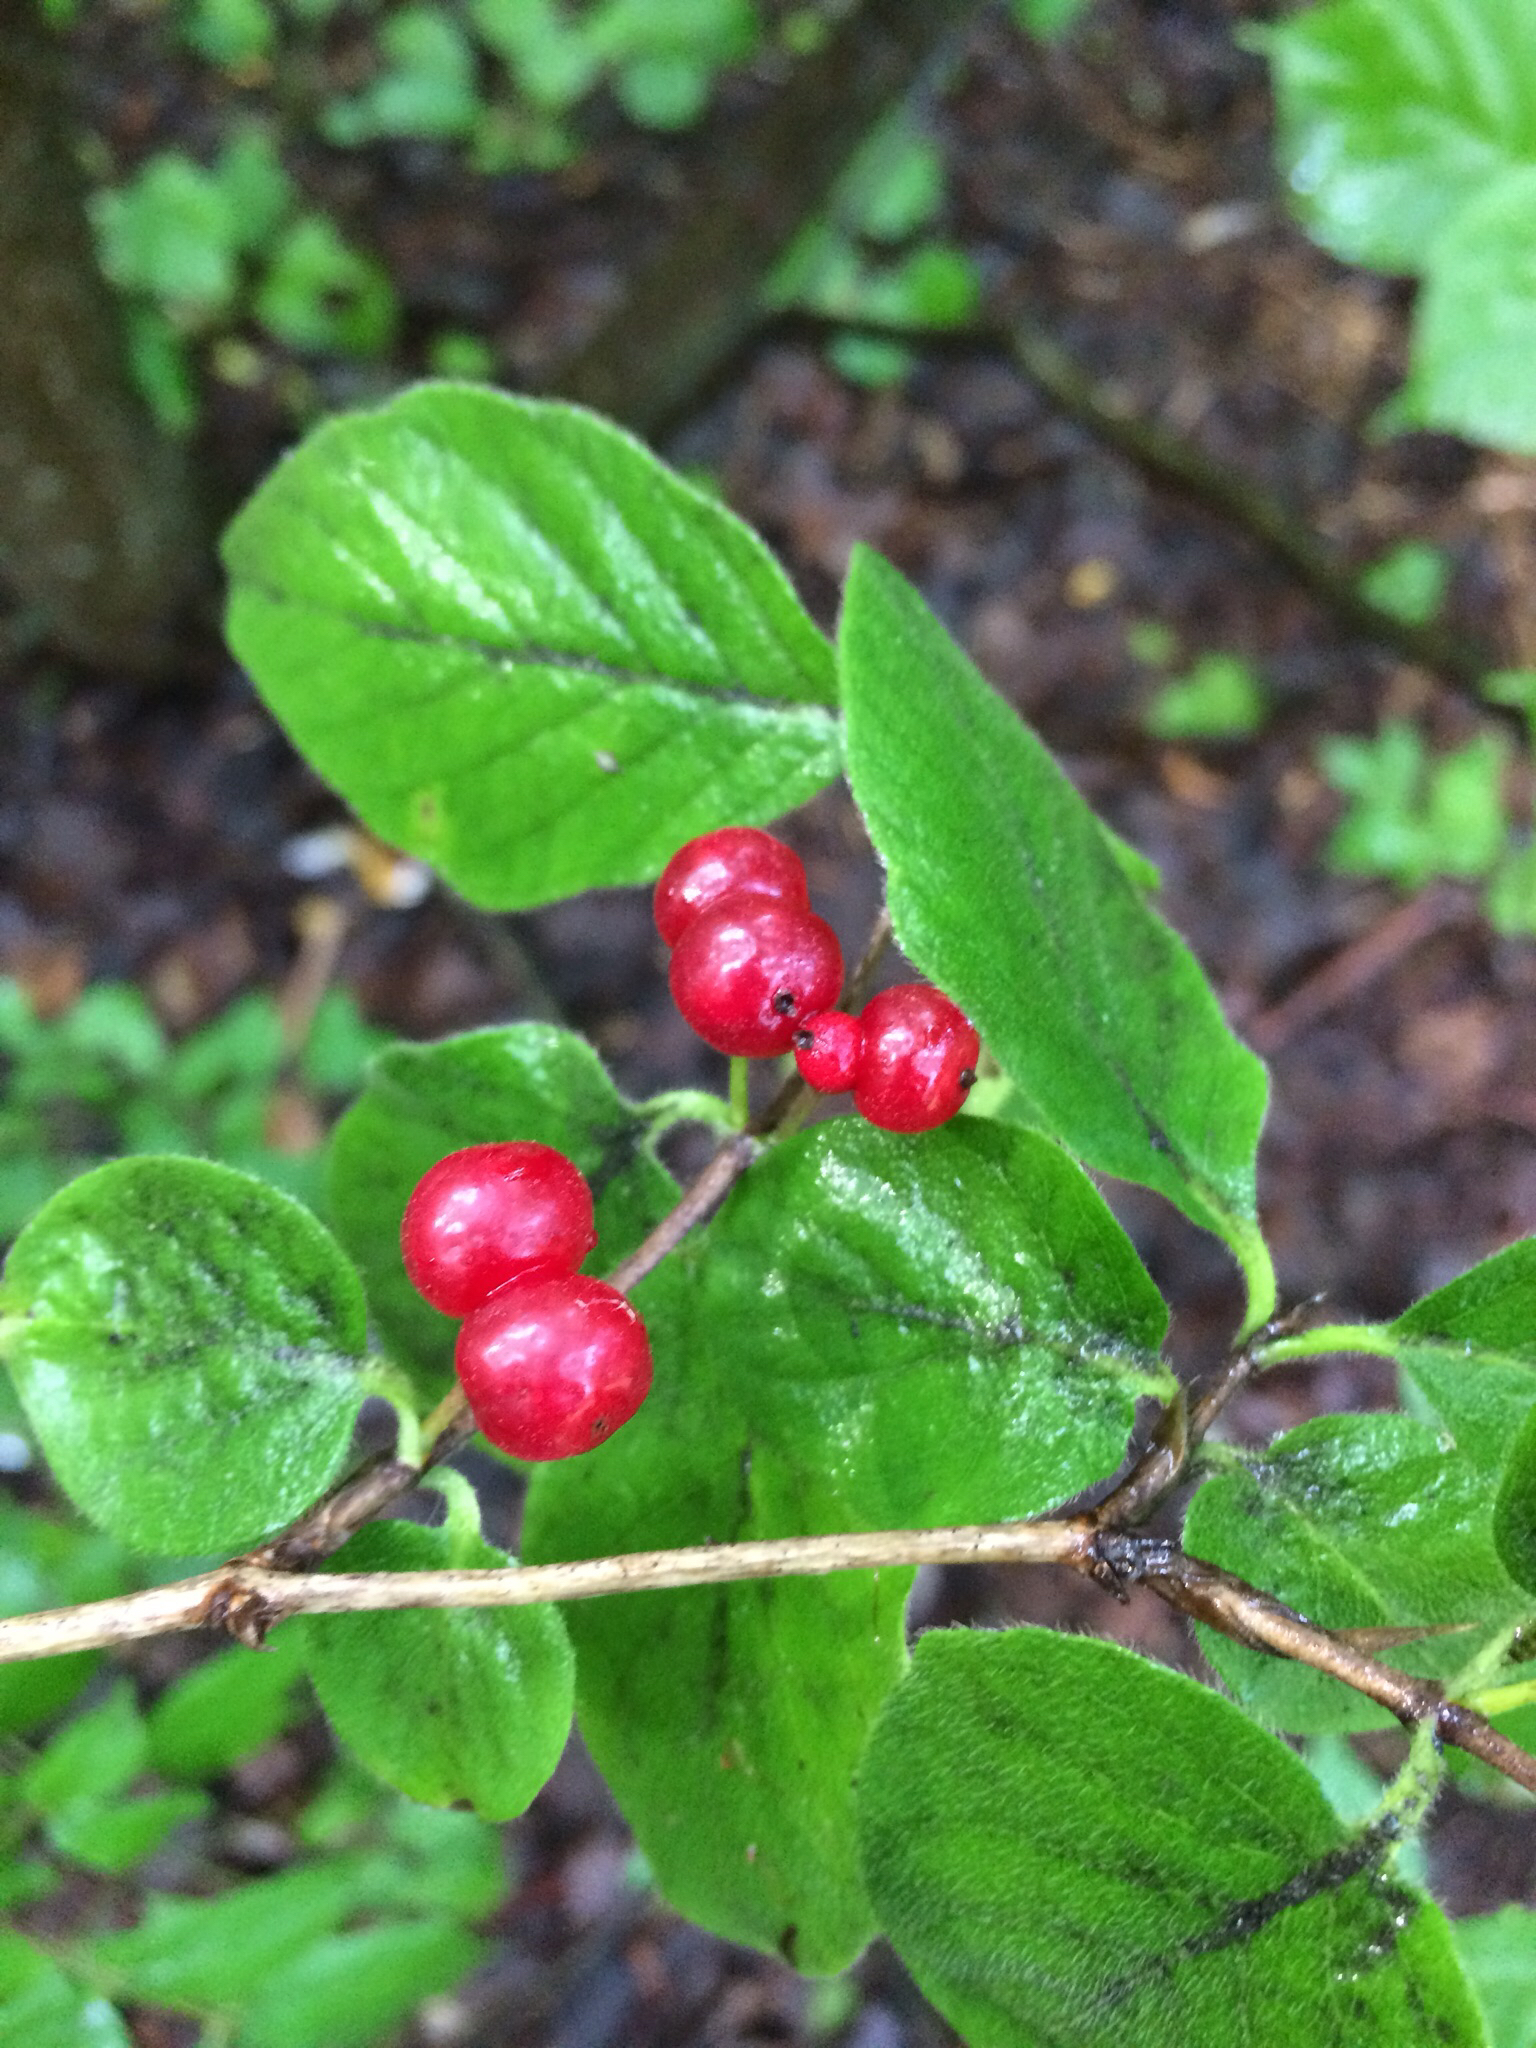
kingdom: Plantae
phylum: Tracheophyta
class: Magnoliopsida
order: Dipsacales
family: Caprifoliaceae
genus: Lonicera
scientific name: Lonicera xylosteum
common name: Fly honeysuckle
